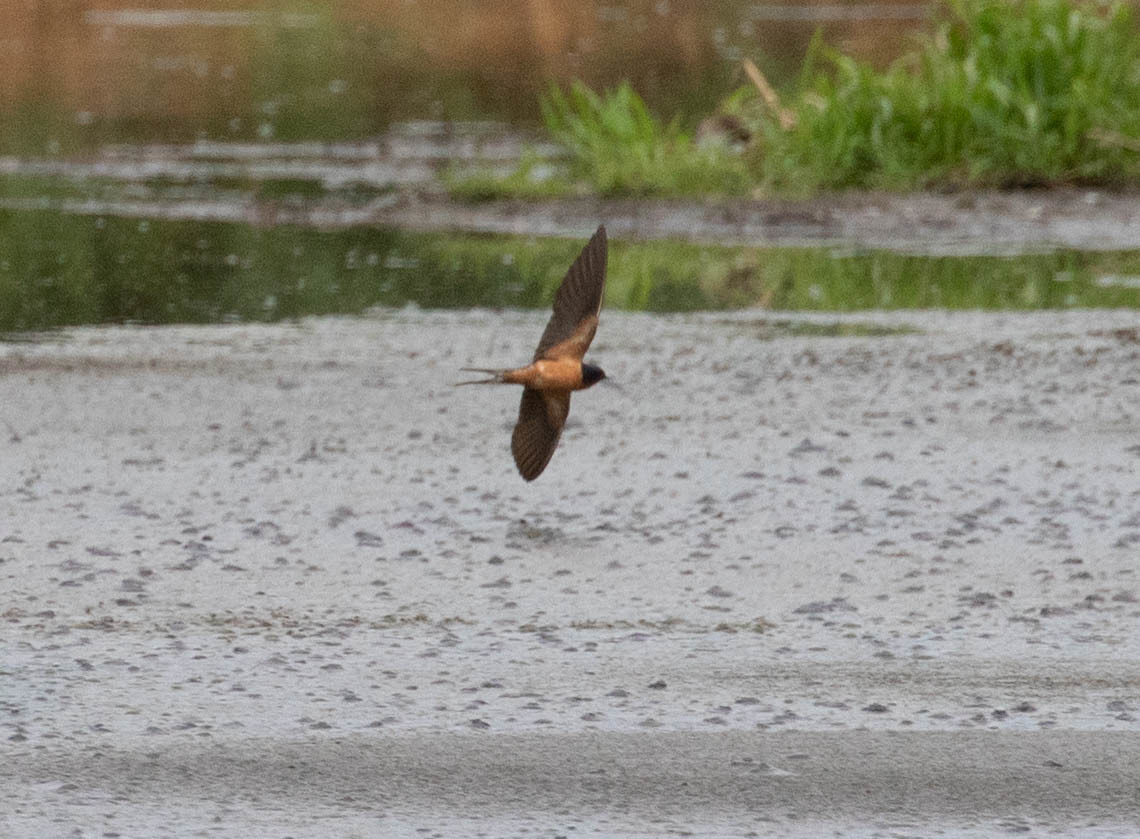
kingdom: Animalia
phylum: Chordata
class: Aves
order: Passeriformes
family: Hirundinidae
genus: Hirundo
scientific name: Hirundo rustica
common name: Barn swallow
